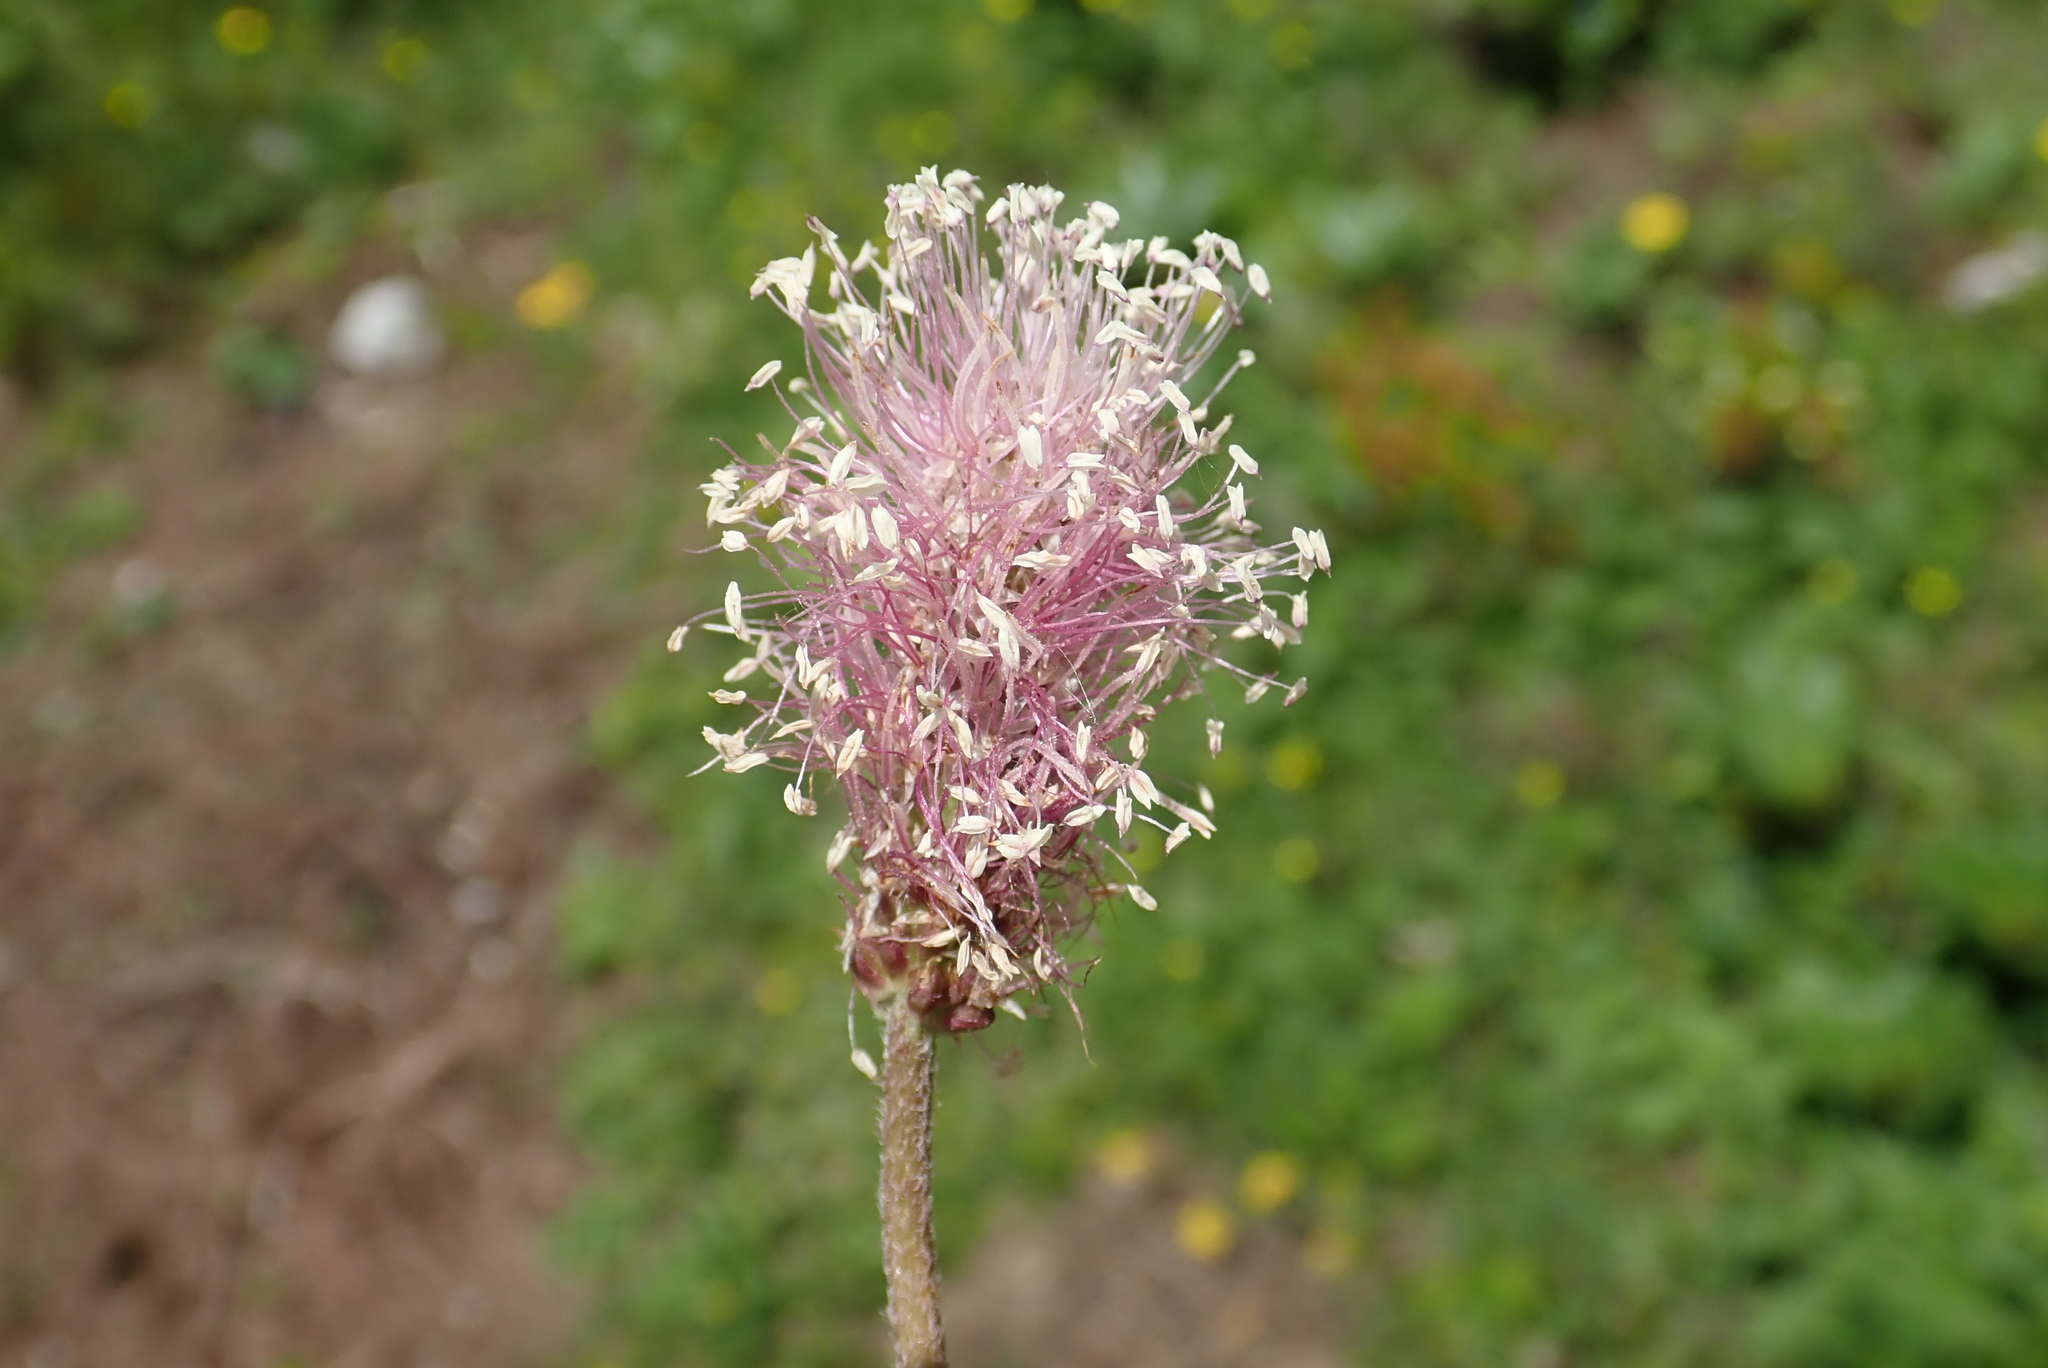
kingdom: Plantae
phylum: Tracheophyta
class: Magnoliopsida
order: Lamiales
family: Plantaginaceae
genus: Plantago
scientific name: Plantago media
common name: Hoary plantain
